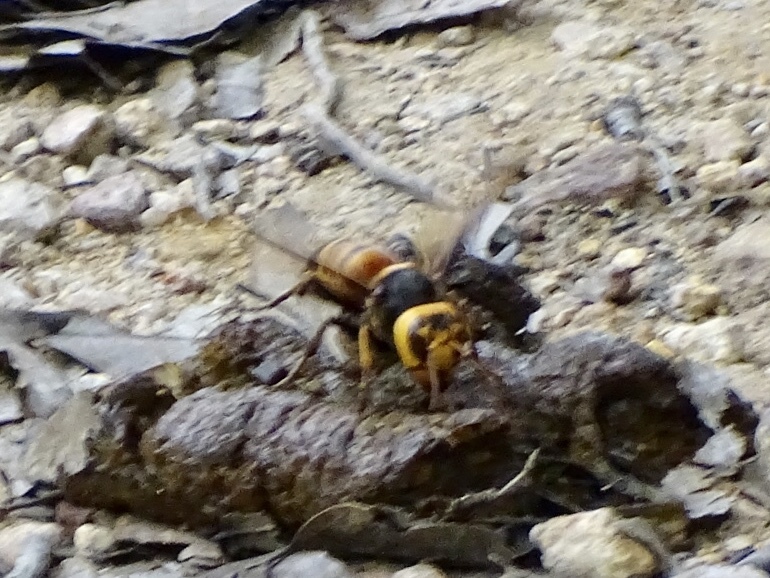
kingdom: Animalia
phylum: Arthropoda
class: Insecta
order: Hymenoptera
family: Vespidae
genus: Vespa
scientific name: Vespa soror
